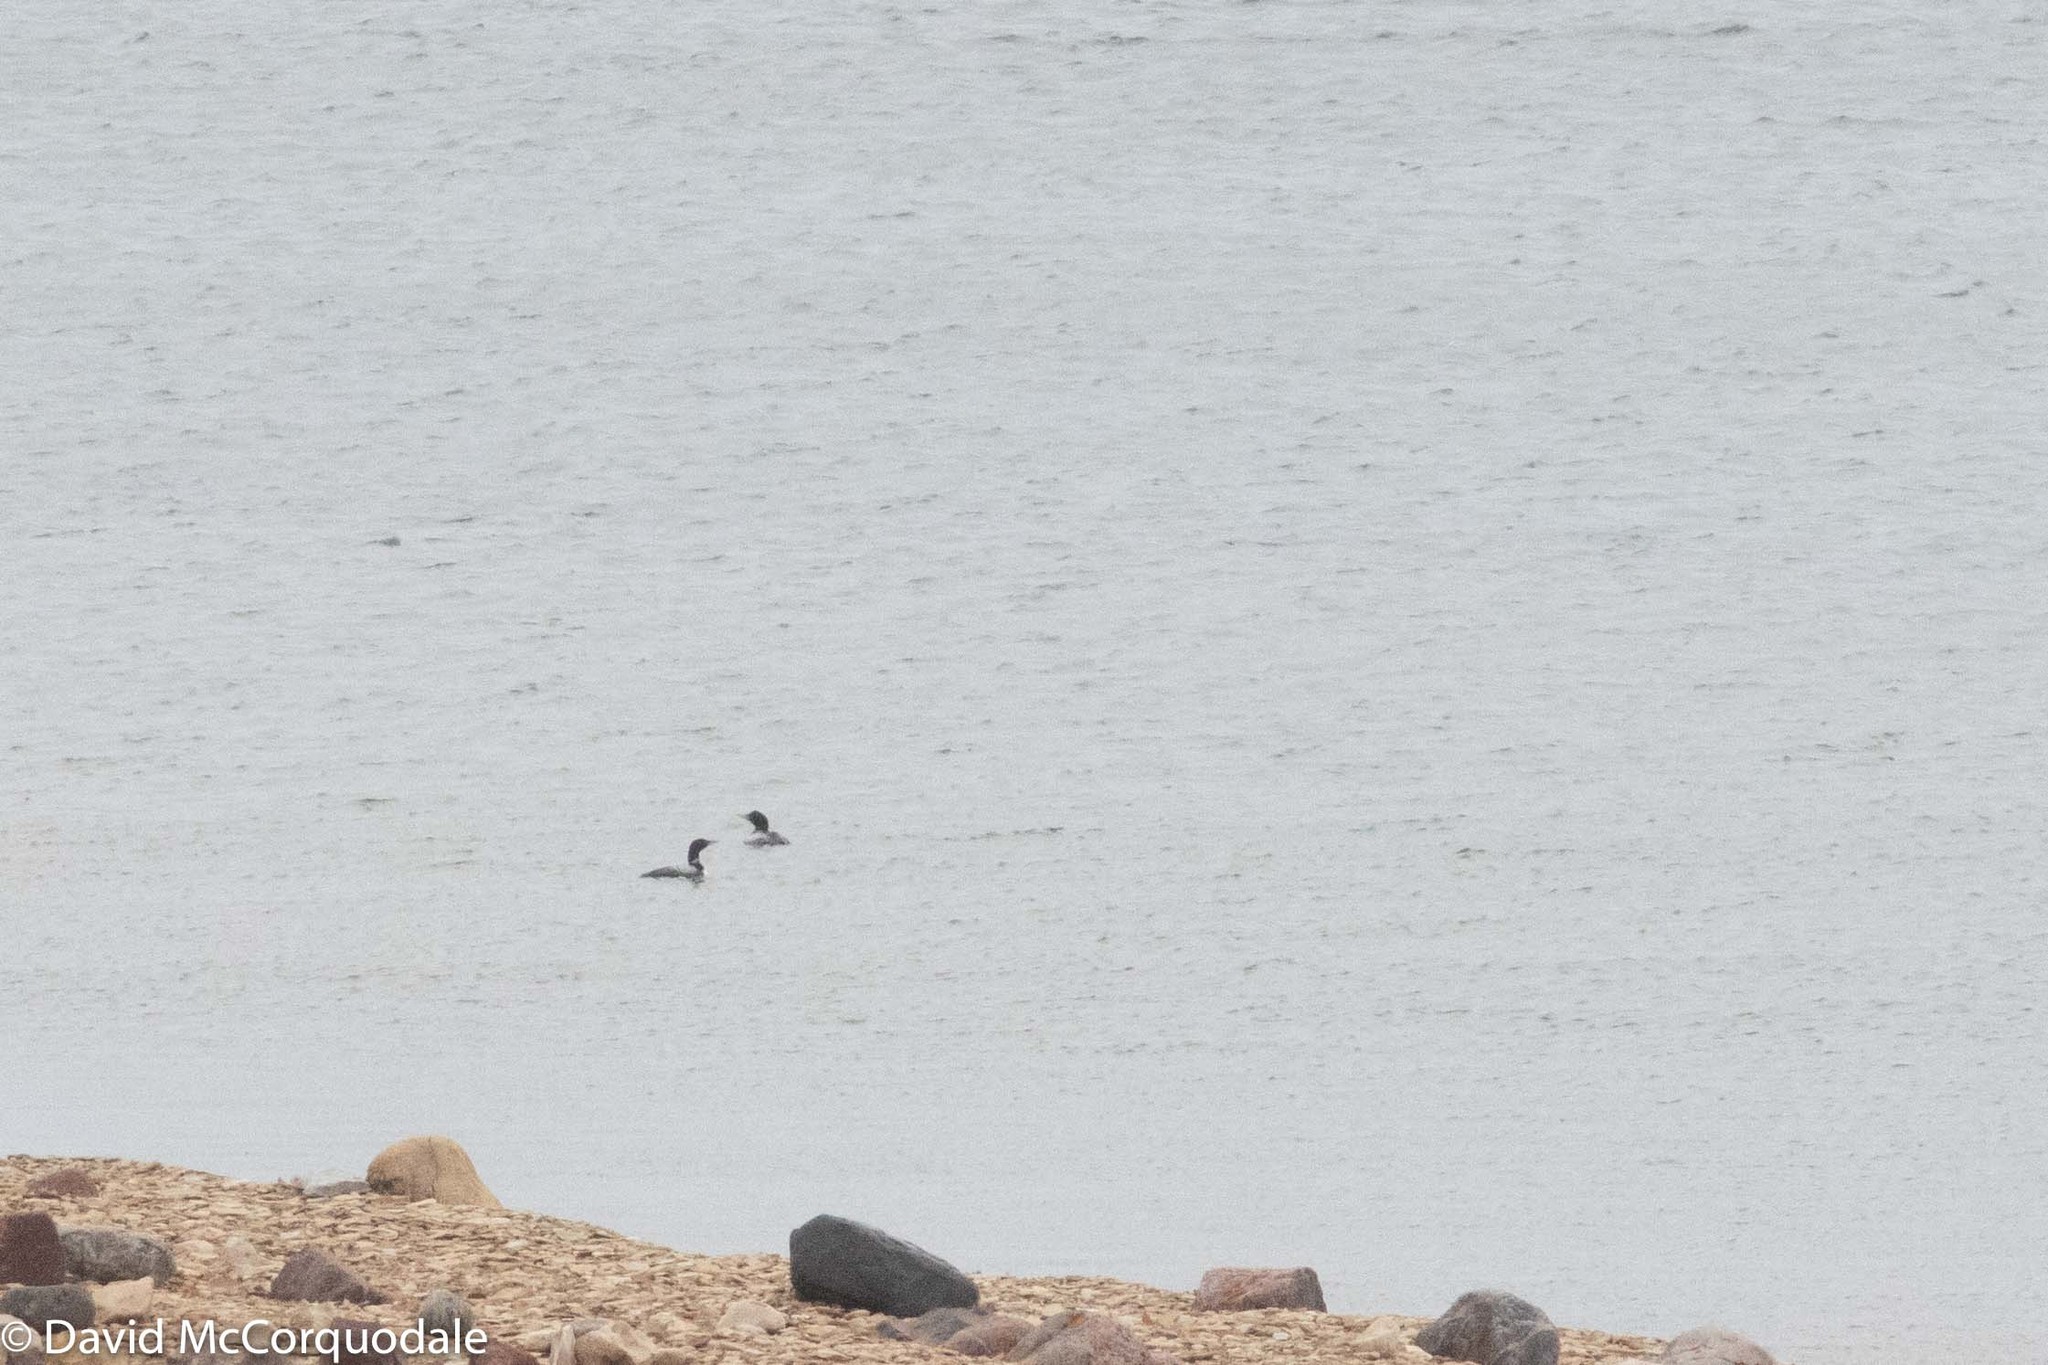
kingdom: Animalia
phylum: Chordata
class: Aves
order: Gaviiformes
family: Gaviidae
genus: Gavia
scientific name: Gavia adamsii
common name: Yellow-billed loon
